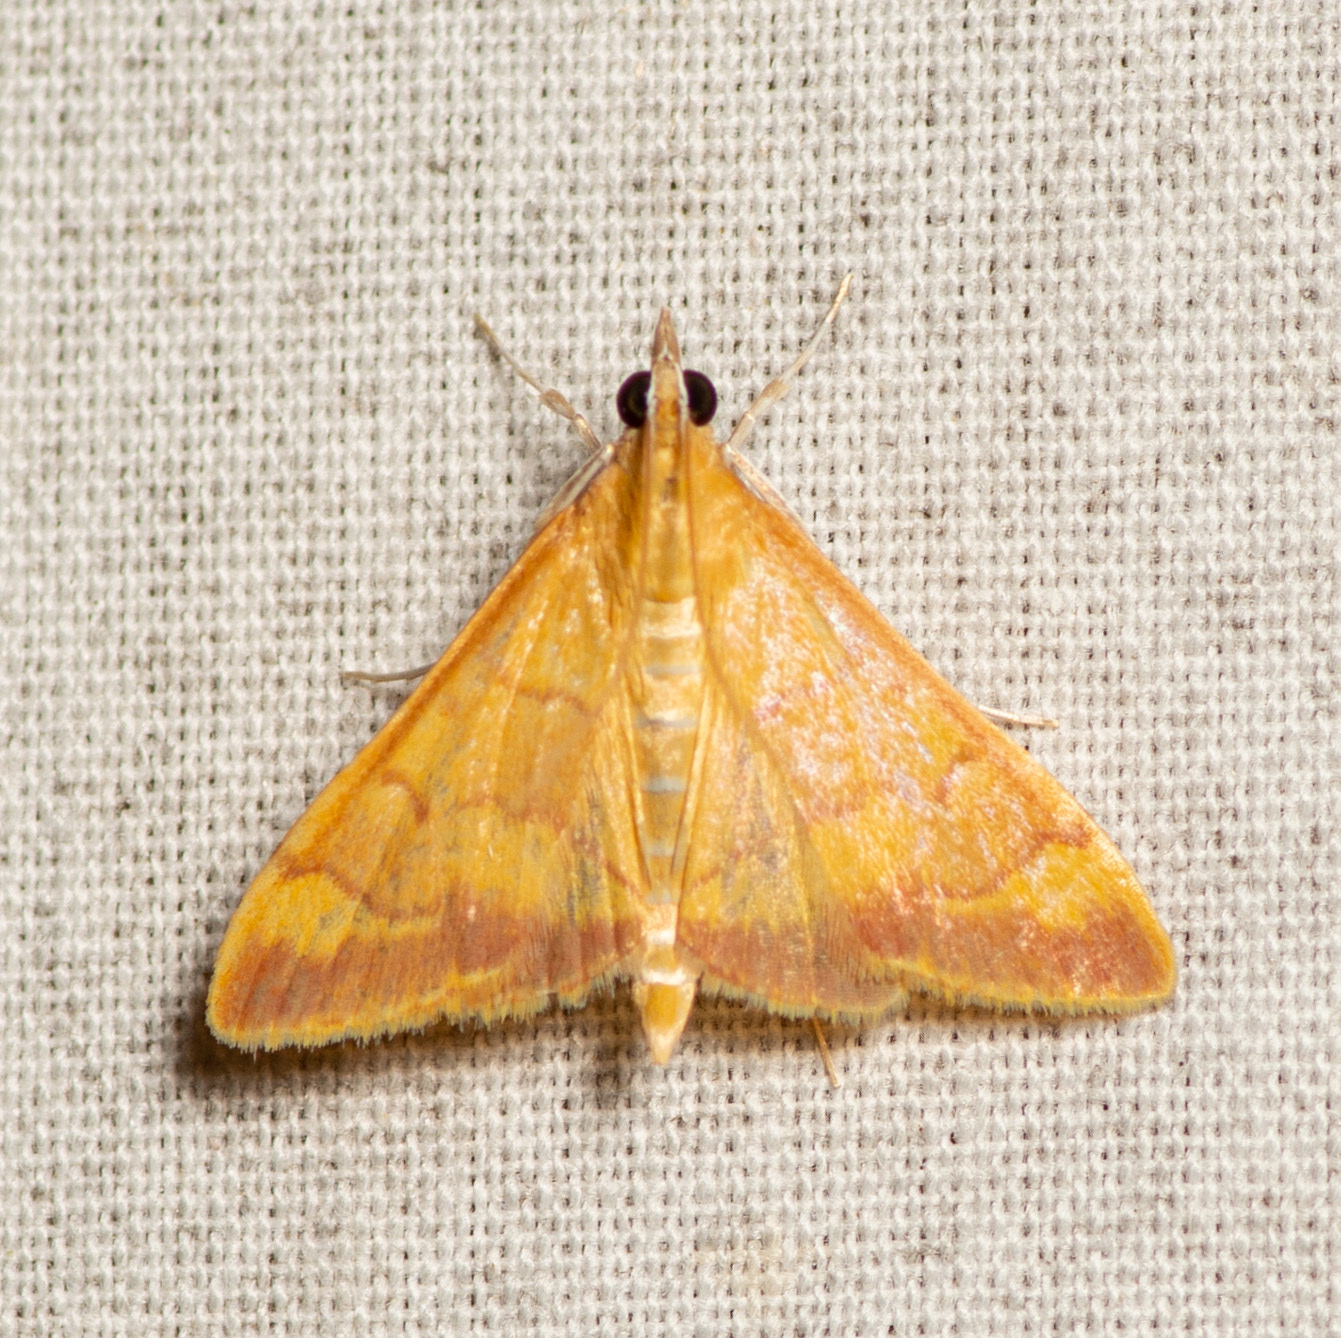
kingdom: Animalia
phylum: Arthropoda
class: Insecta
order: Lepidoptera
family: Crambidae
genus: Pyrausta
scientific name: Pyrausta pseudonythesalis
